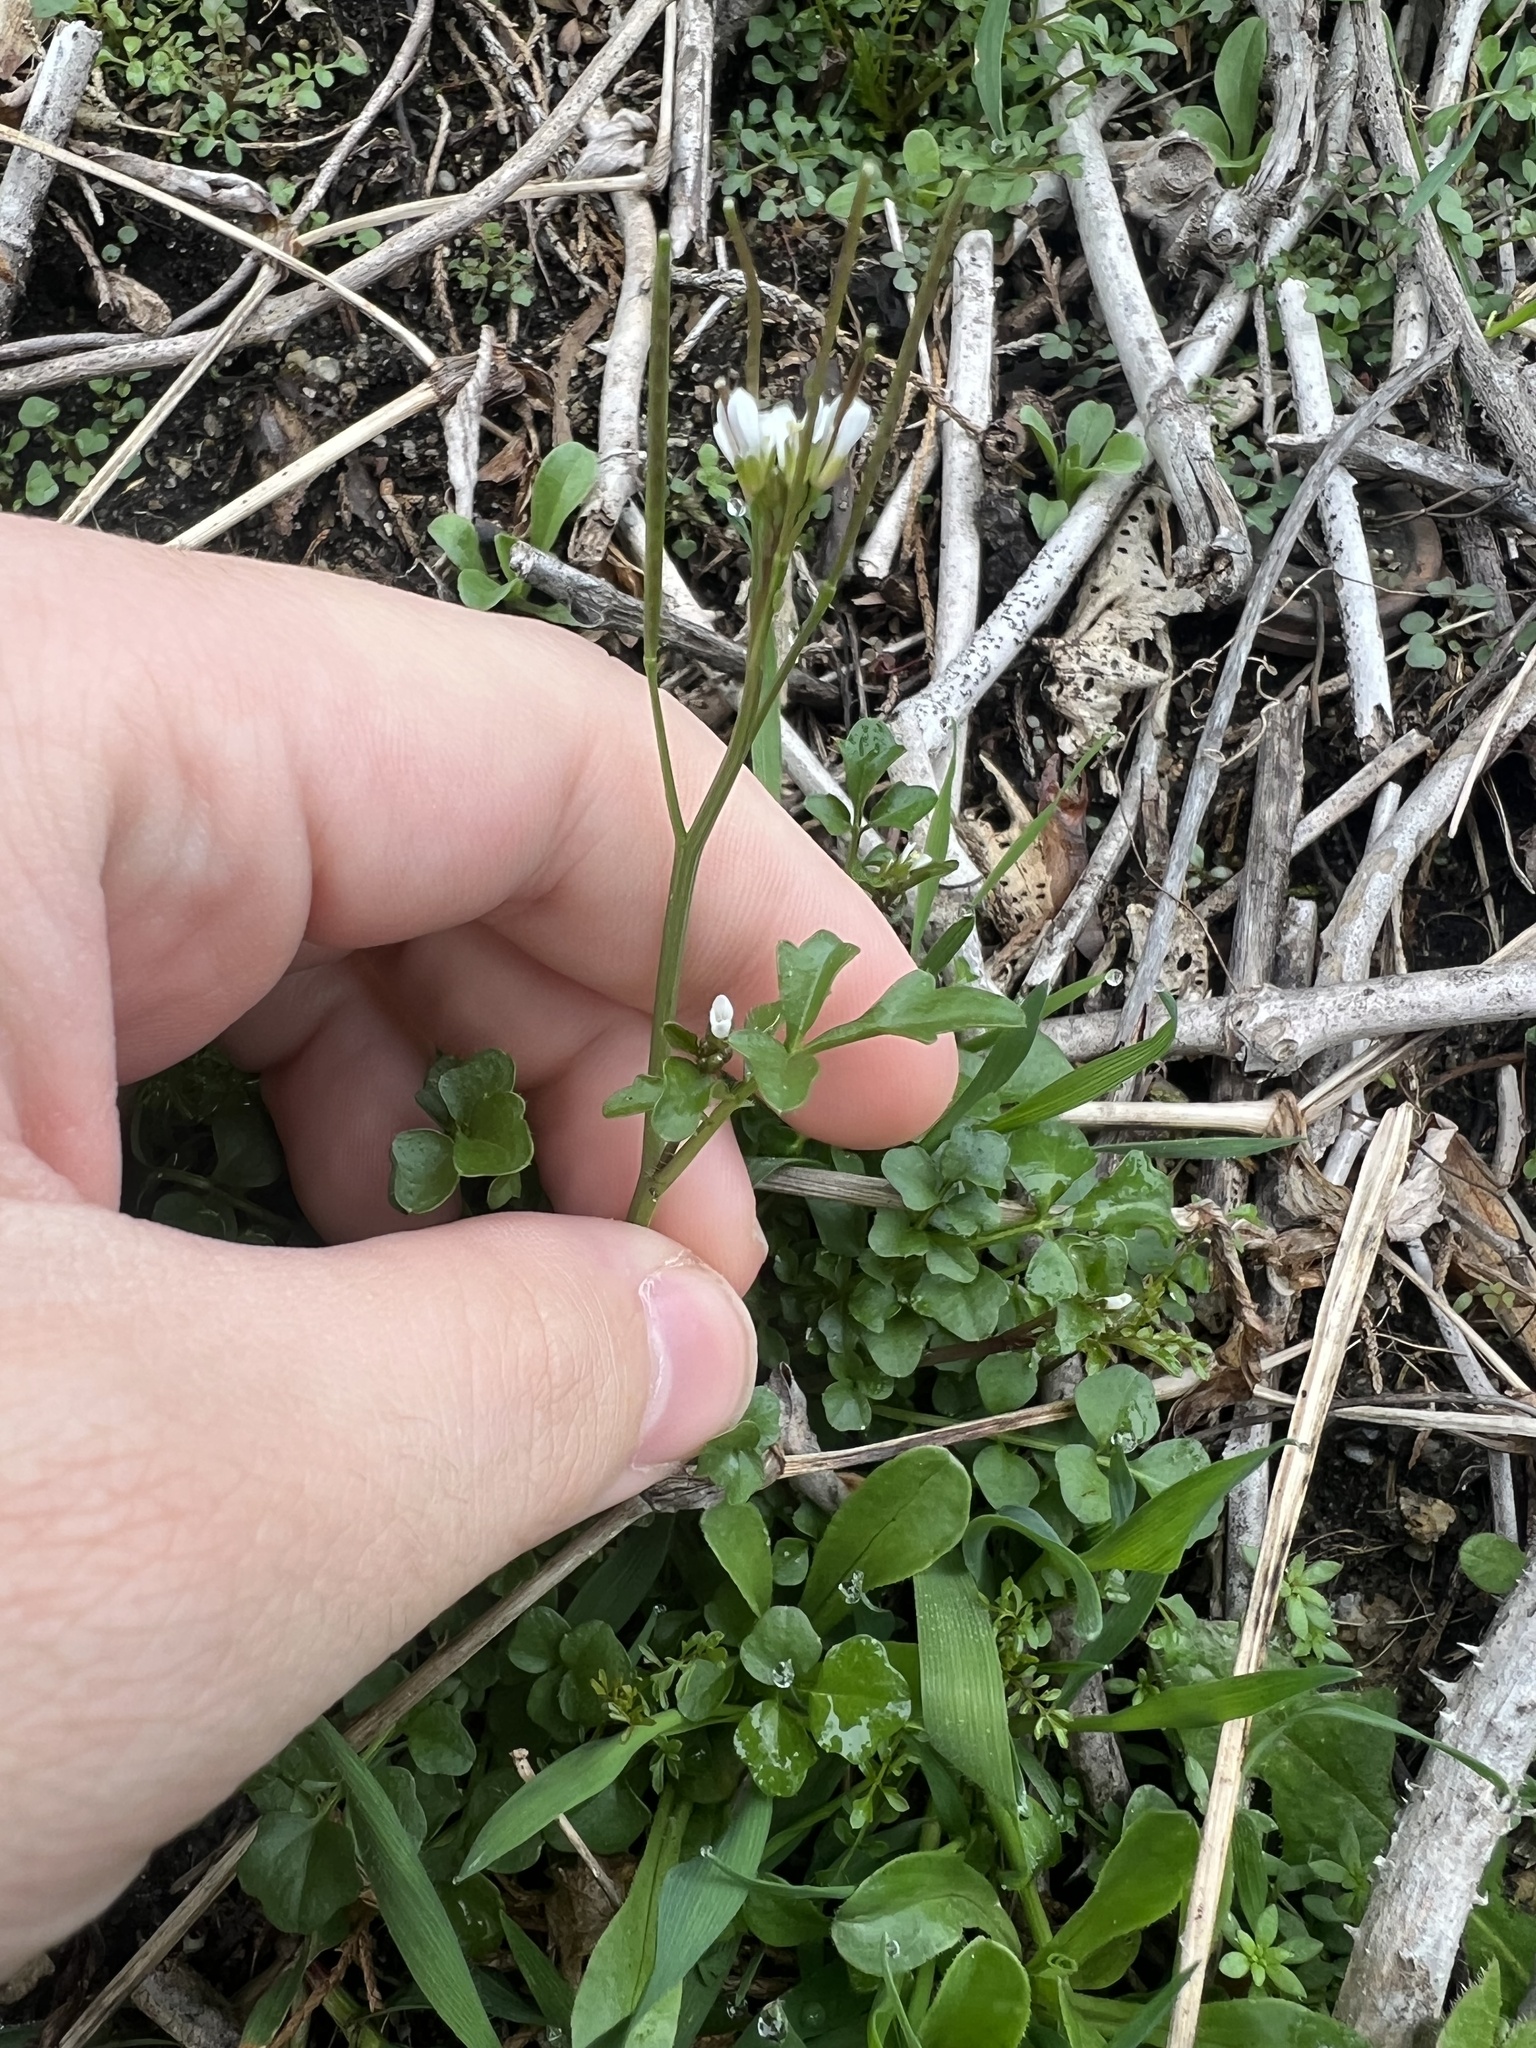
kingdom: Plantae
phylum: Tracheophyta
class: Magnoliopsida
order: Brassicales
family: Brassicaceae
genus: Cardamine
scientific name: Cardamine hirsuta
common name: Hairy bittercress
